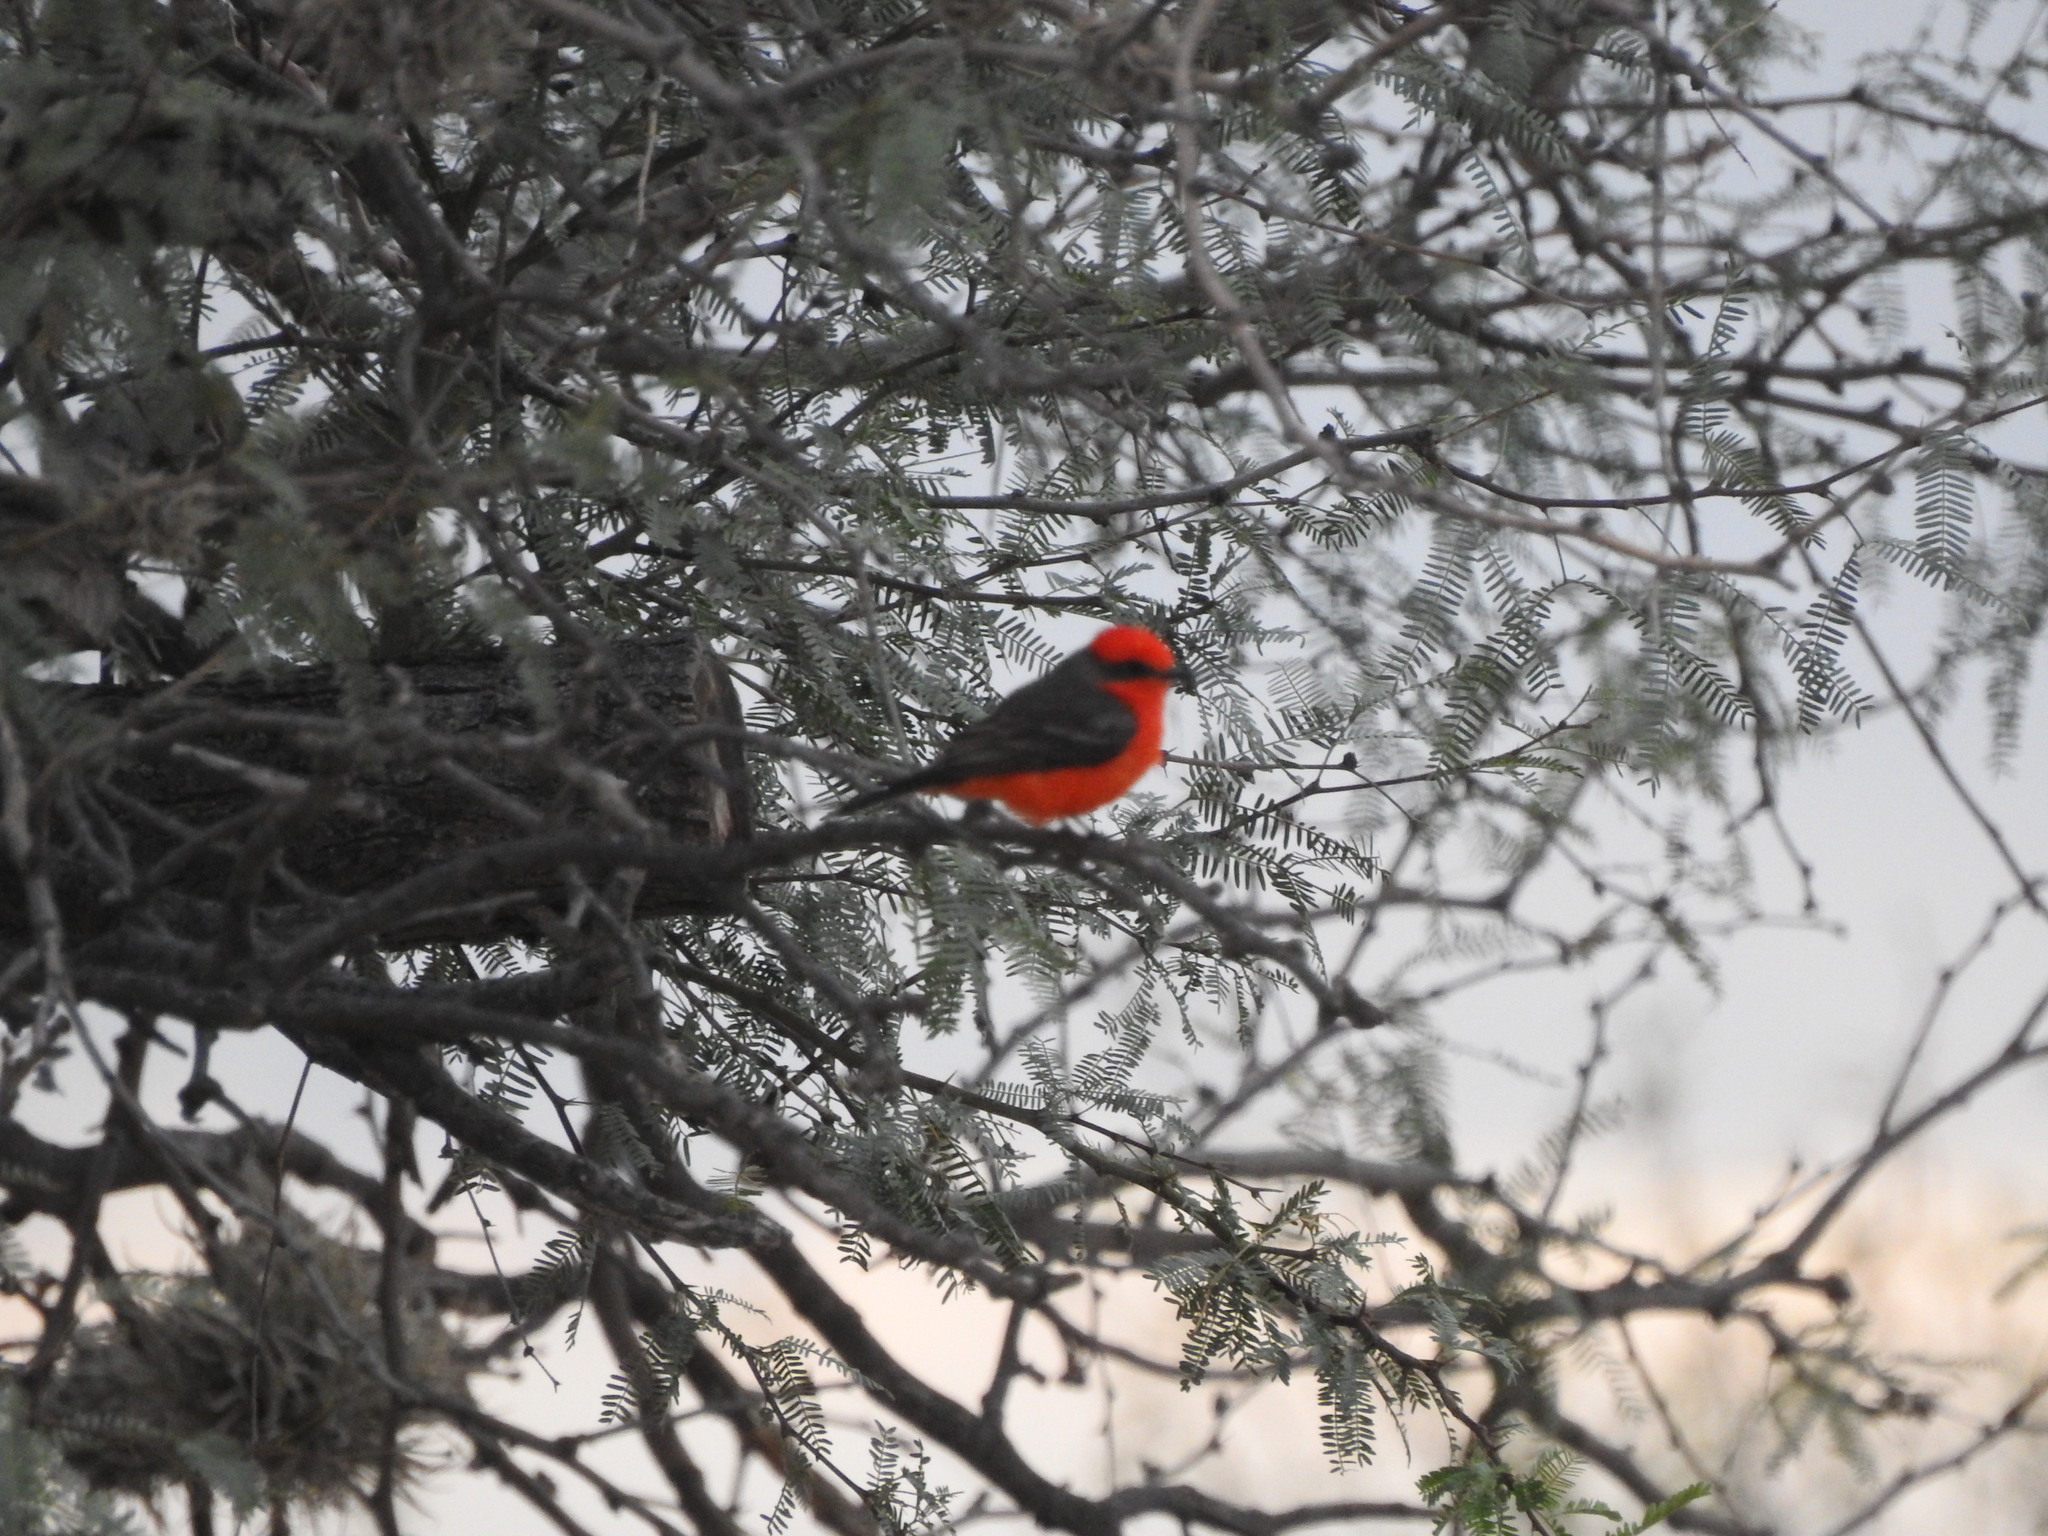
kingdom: Animalia
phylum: Chordata
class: Aves
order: Passeriformes
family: Tyrannidae
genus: Pyrocephalus
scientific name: Pyrocephalus rubinus
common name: Vermilion flycatcher
